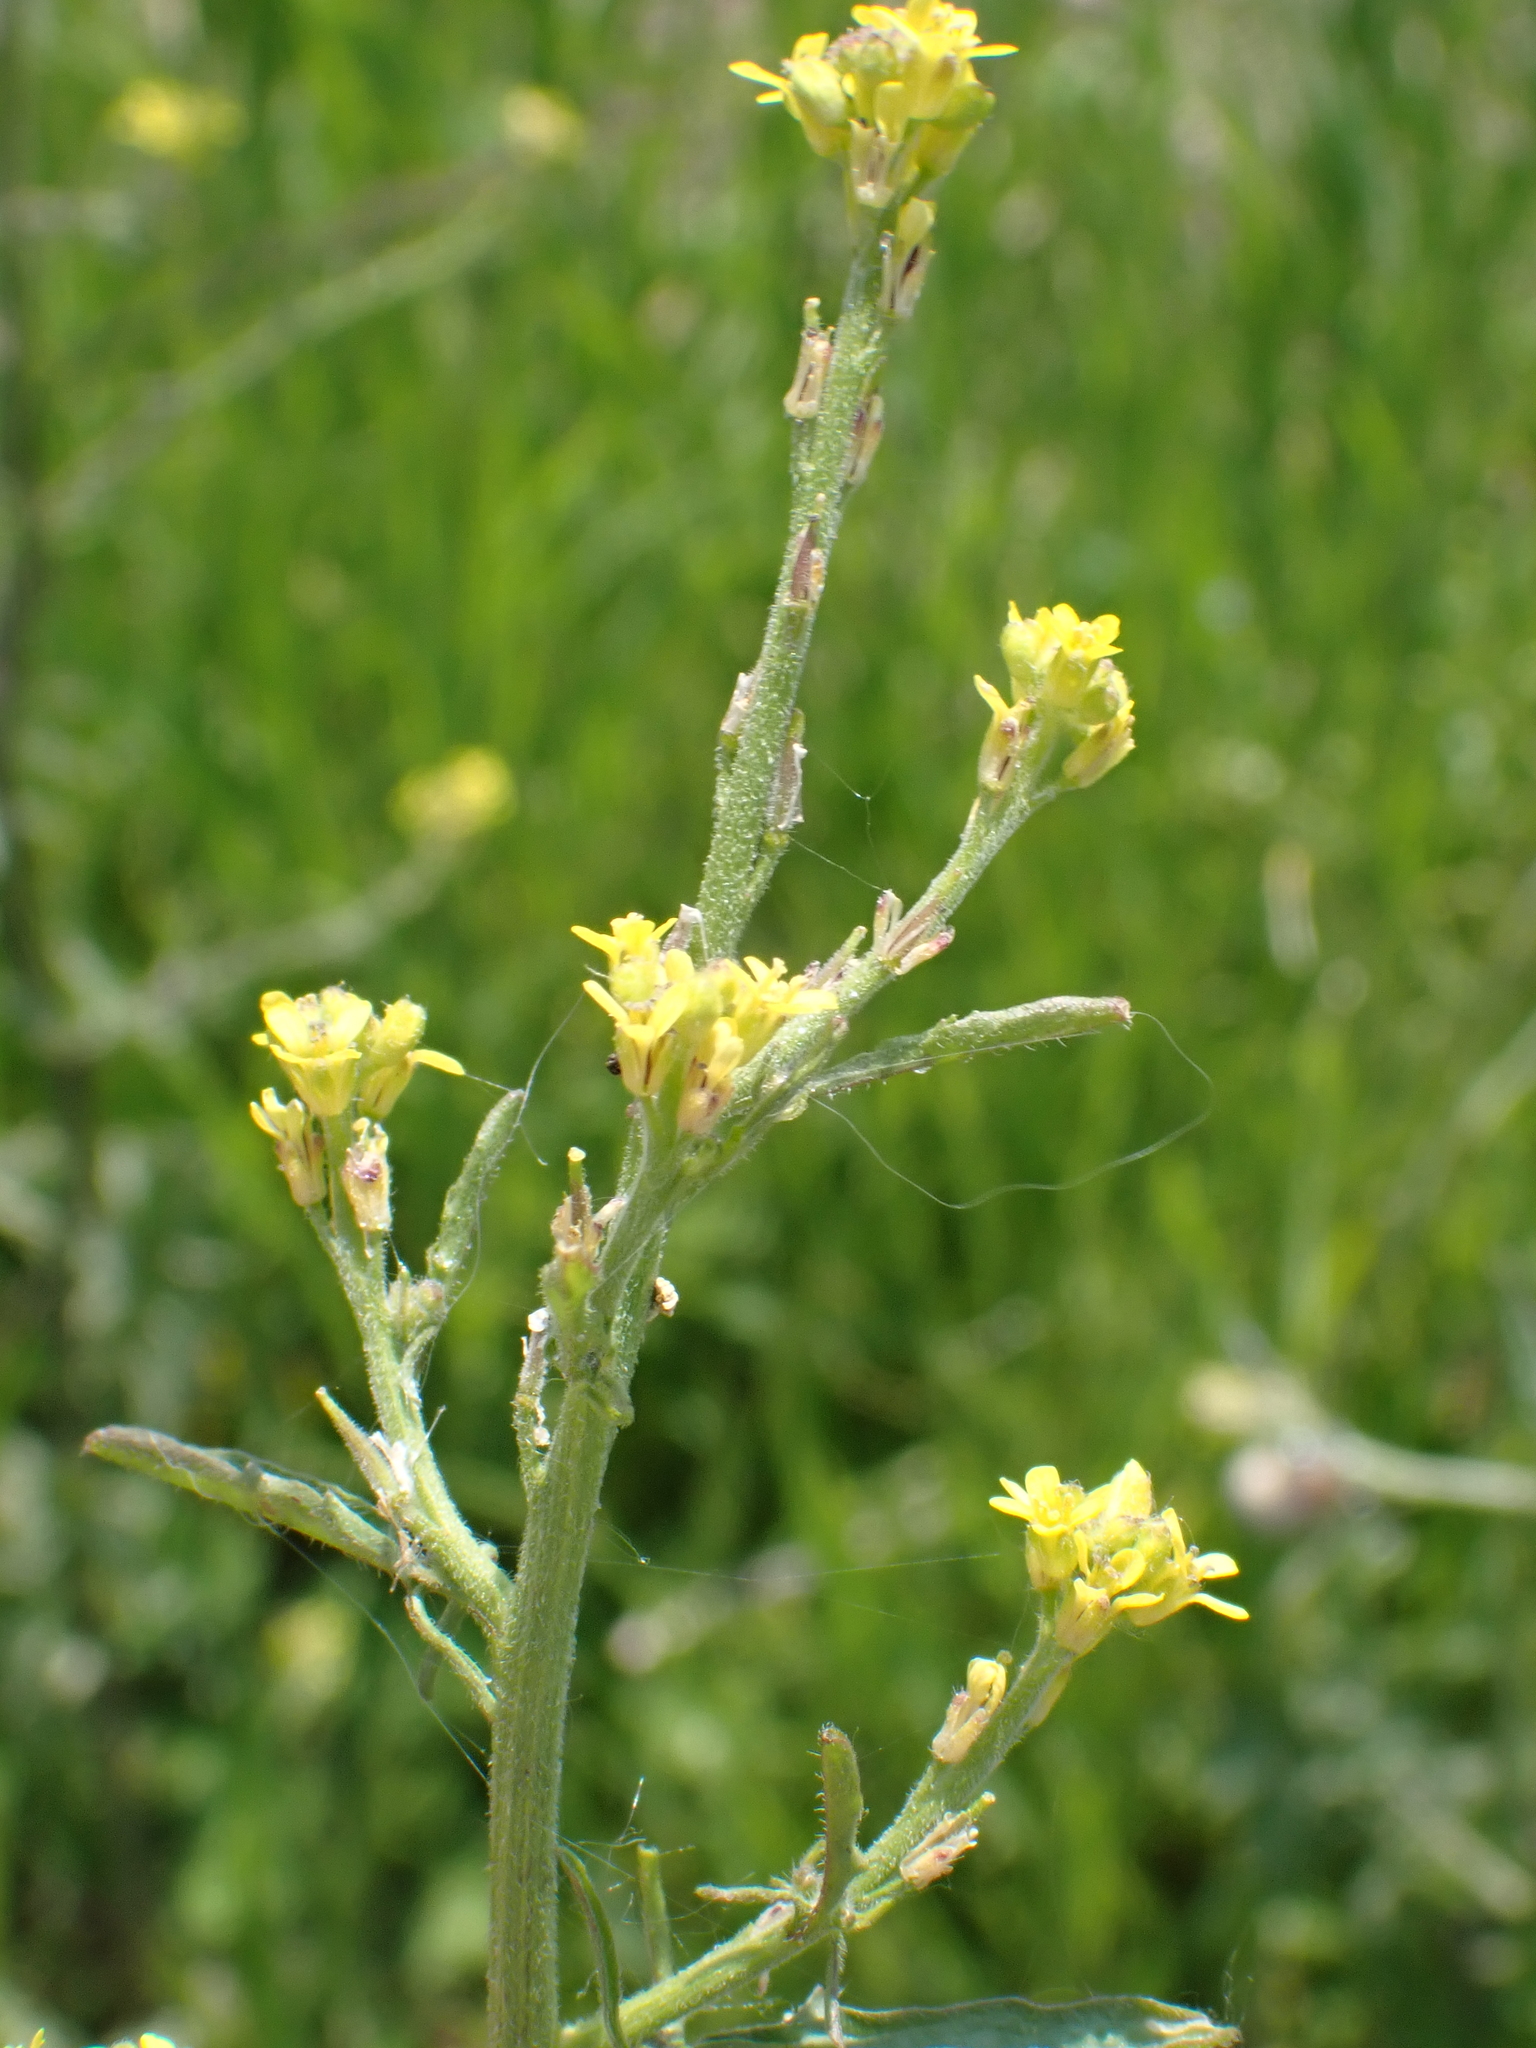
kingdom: Plantae
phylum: Tracheophyta
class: Magnoliopsida
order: Brassicales
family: Brassicaceae
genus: Sisymbrium
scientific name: Sisymbrium officinale
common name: Hedge mustard
